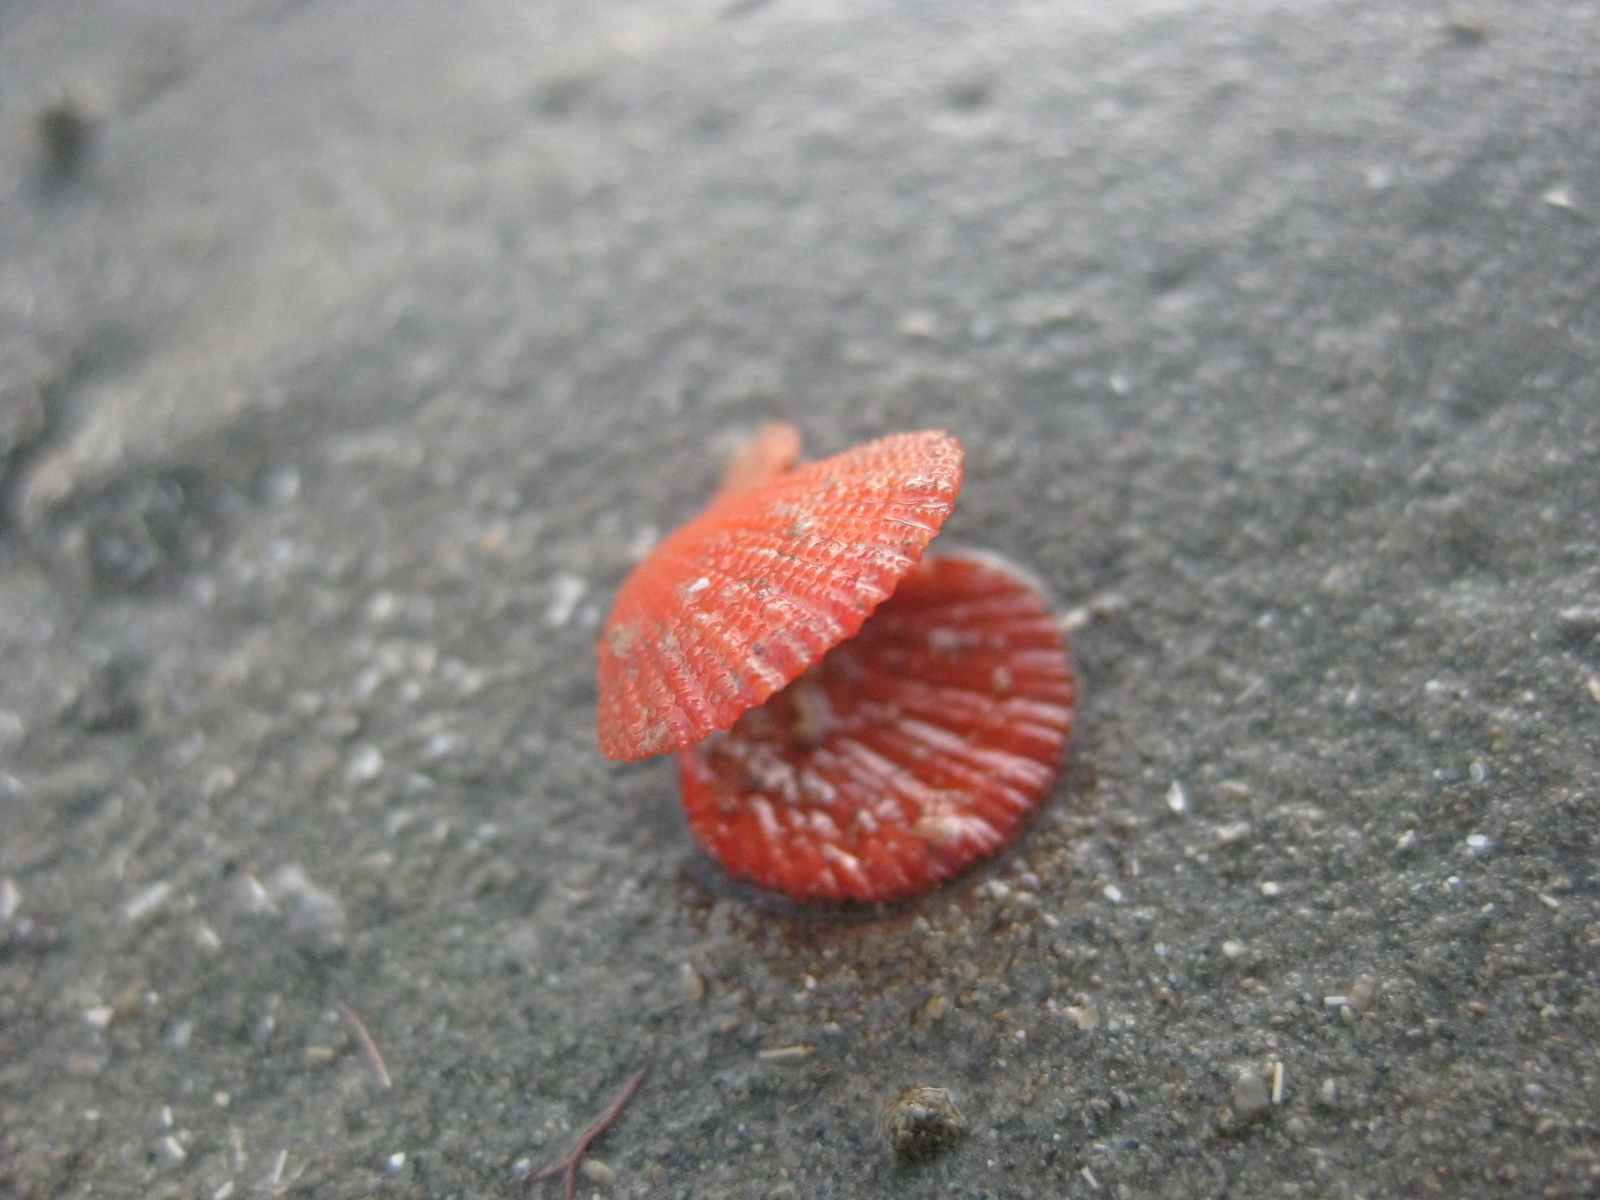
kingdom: Animalia
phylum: Mollusca
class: Bivalvia
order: Pectinida
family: Pectinidae
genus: Talochlamys
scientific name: Talochlamys zelandiae
